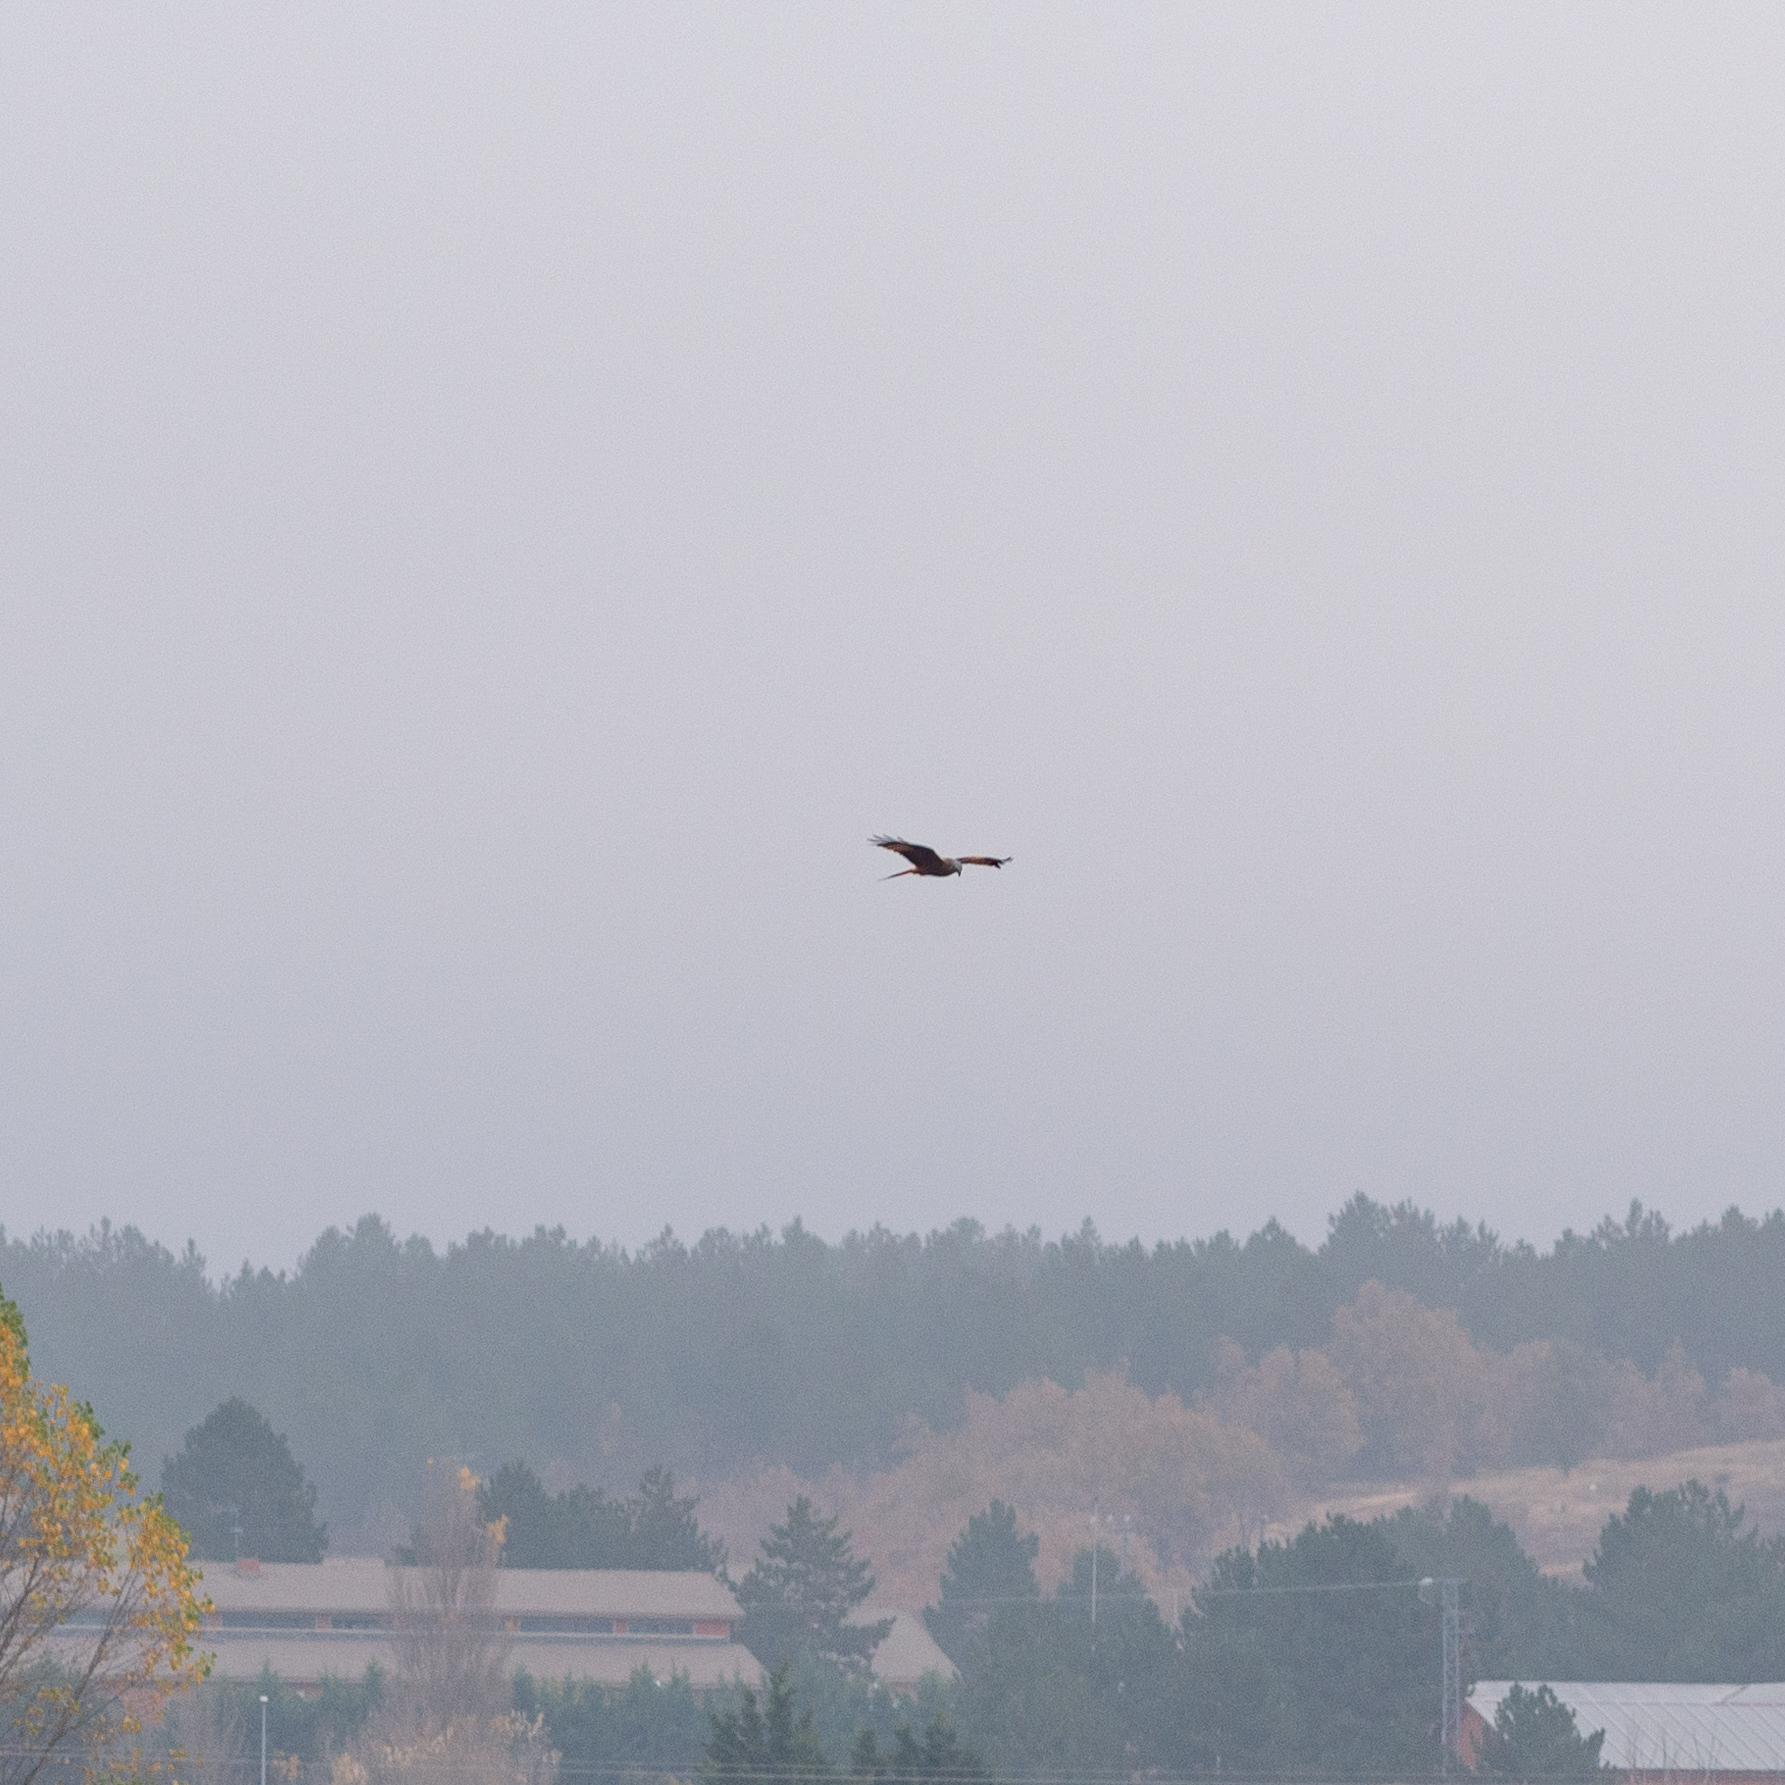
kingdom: Animalia
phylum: Chordata
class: Aves
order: Accipitriformes
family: Accipitridae
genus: Milvus
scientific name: Milvus milvus
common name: Red kite
